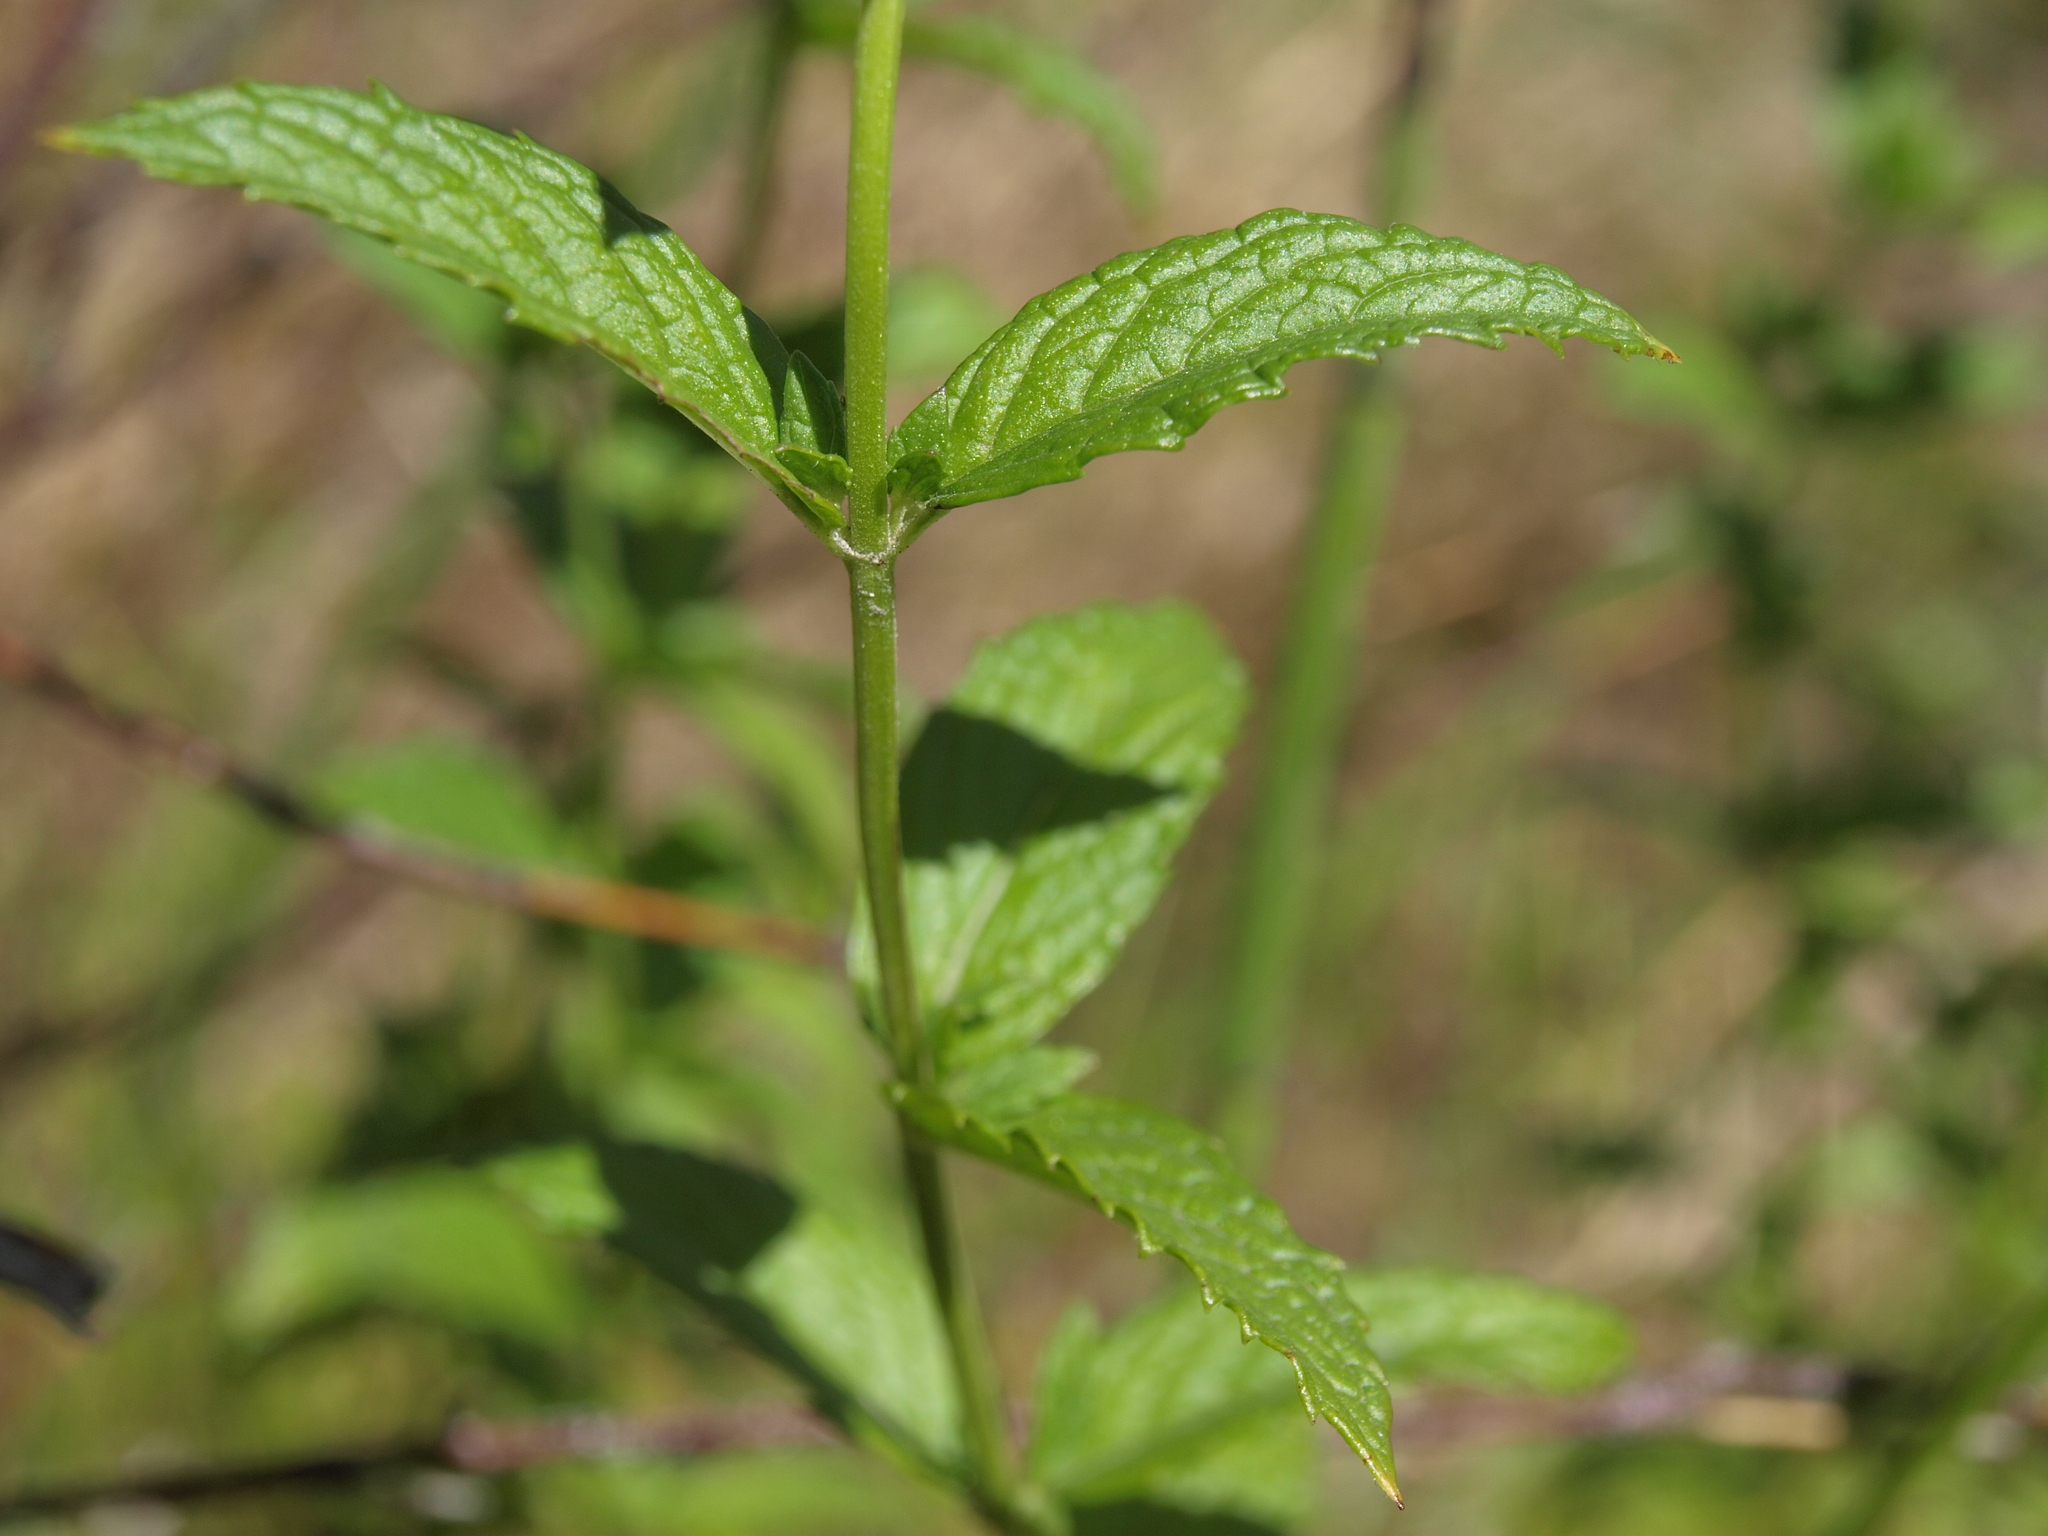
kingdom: Plantae
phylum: Tracheophyta
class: Magnoliopsida
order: Lamiales
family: Lamiaceae
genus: Mentha
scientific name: Mentha spicata
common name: Spearmint
